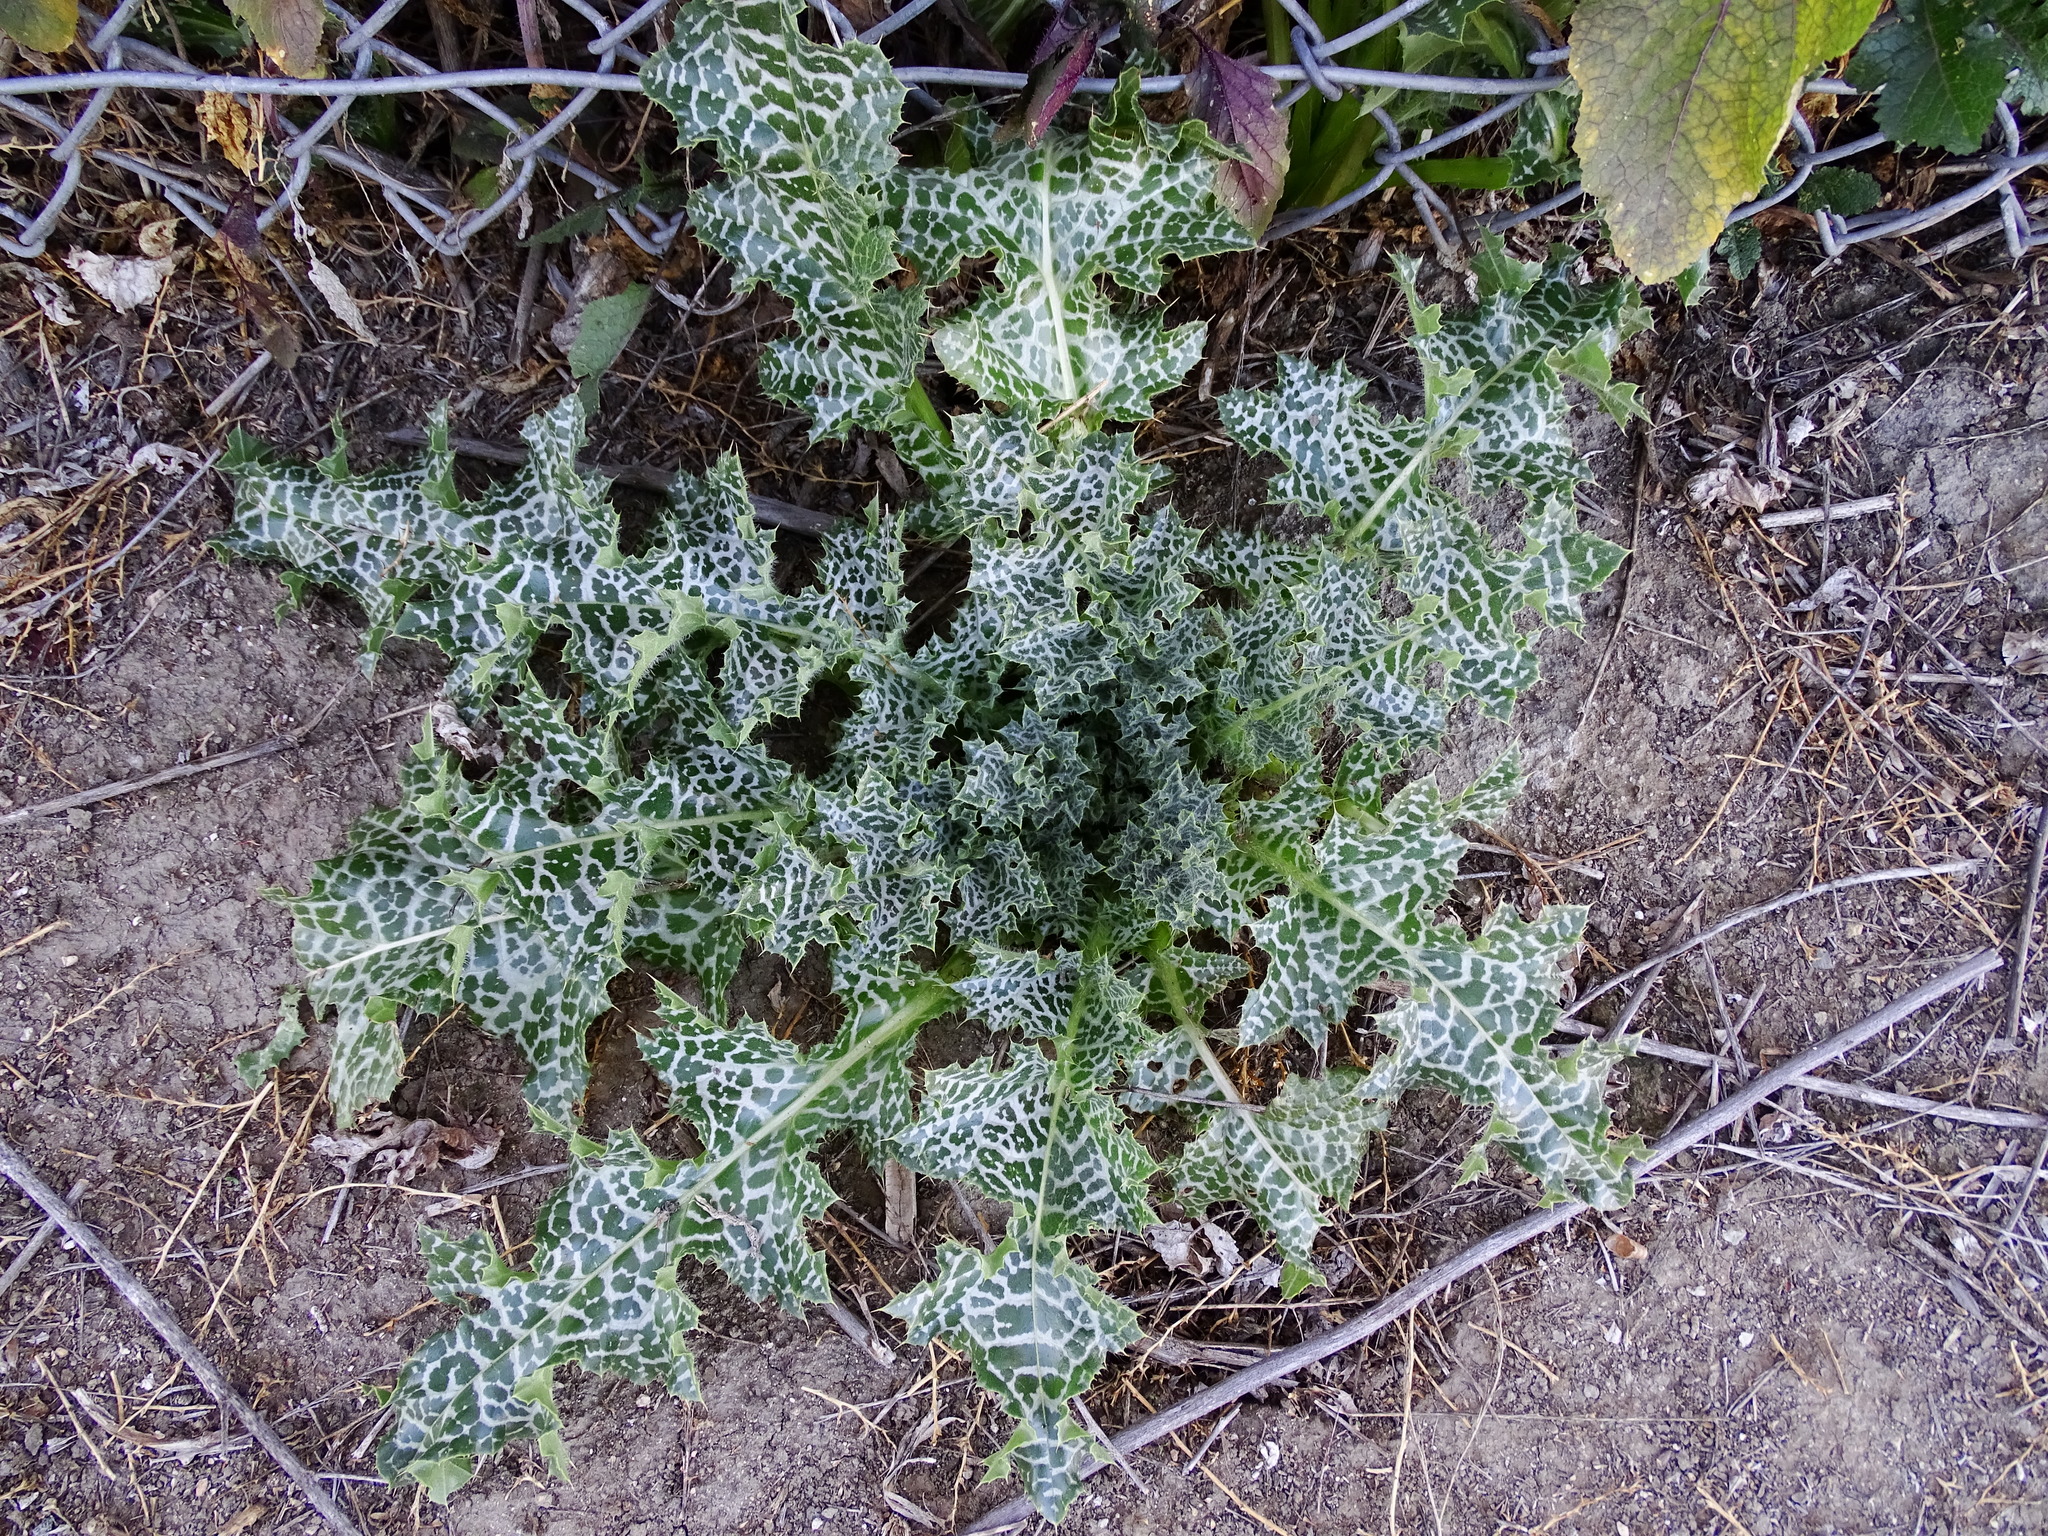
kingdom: Plantae
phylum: Tracheophyta
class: Magnoliopsida
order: Asterales
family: Asteraceae
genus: Silybum
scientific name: Silybum marianum
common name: Milk thistle
